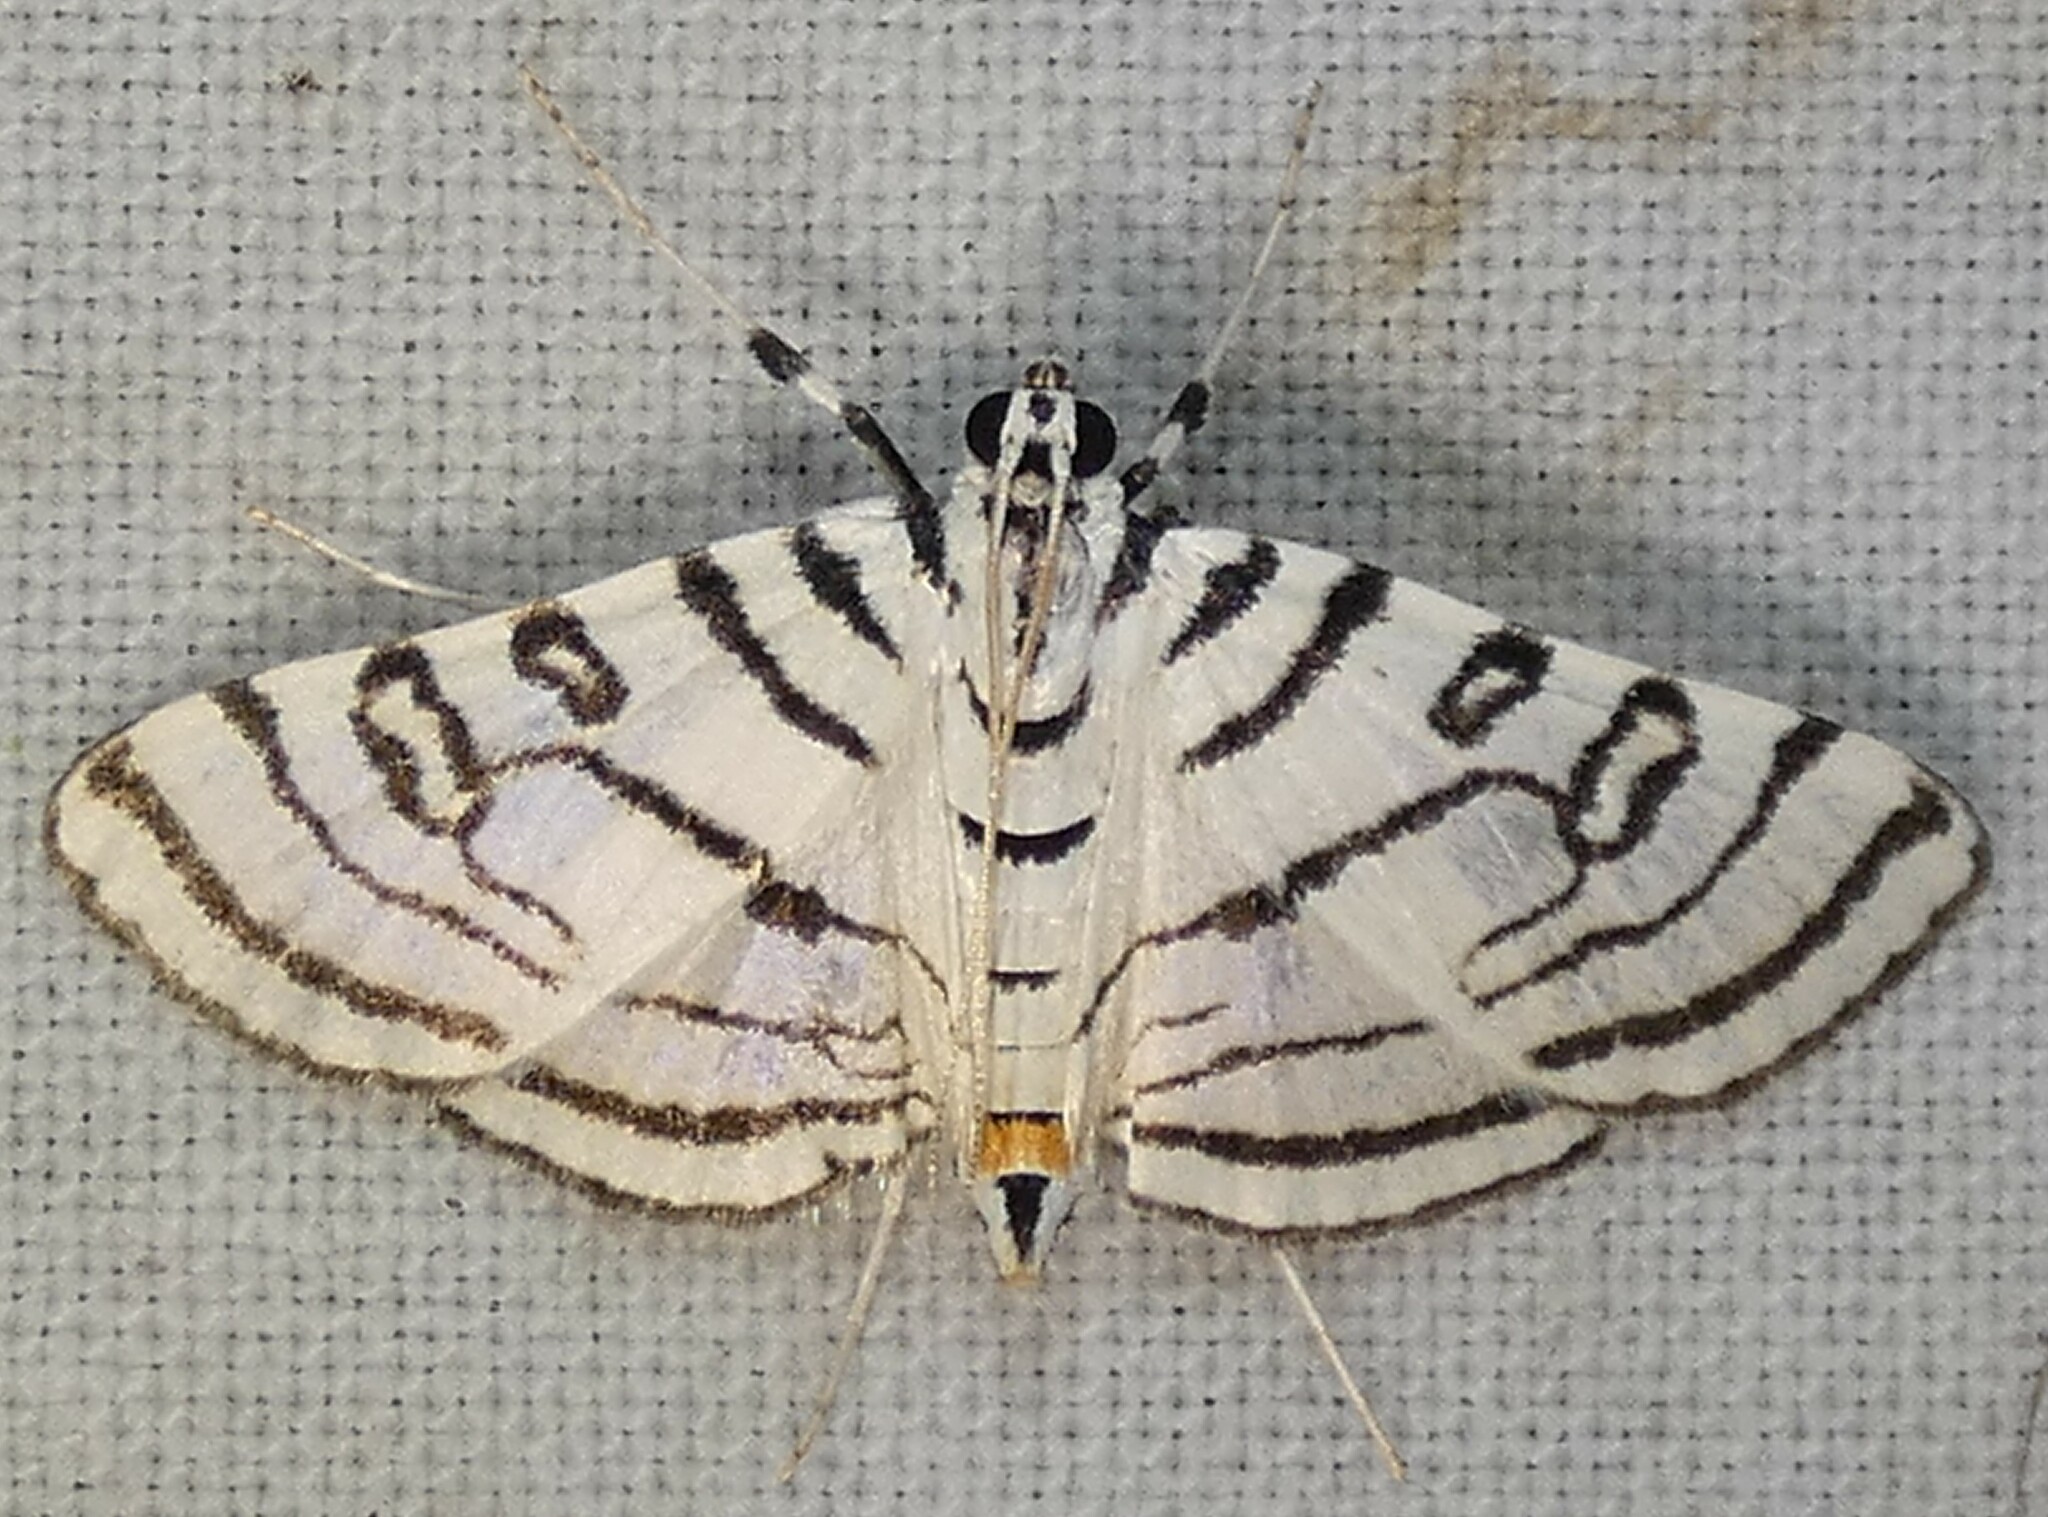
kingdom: Animalia
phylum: Arthropoda
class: Insecta
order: Lepidoptera
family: Crambidae
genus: Conchylodes
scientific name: Conchylodes concinnalis
